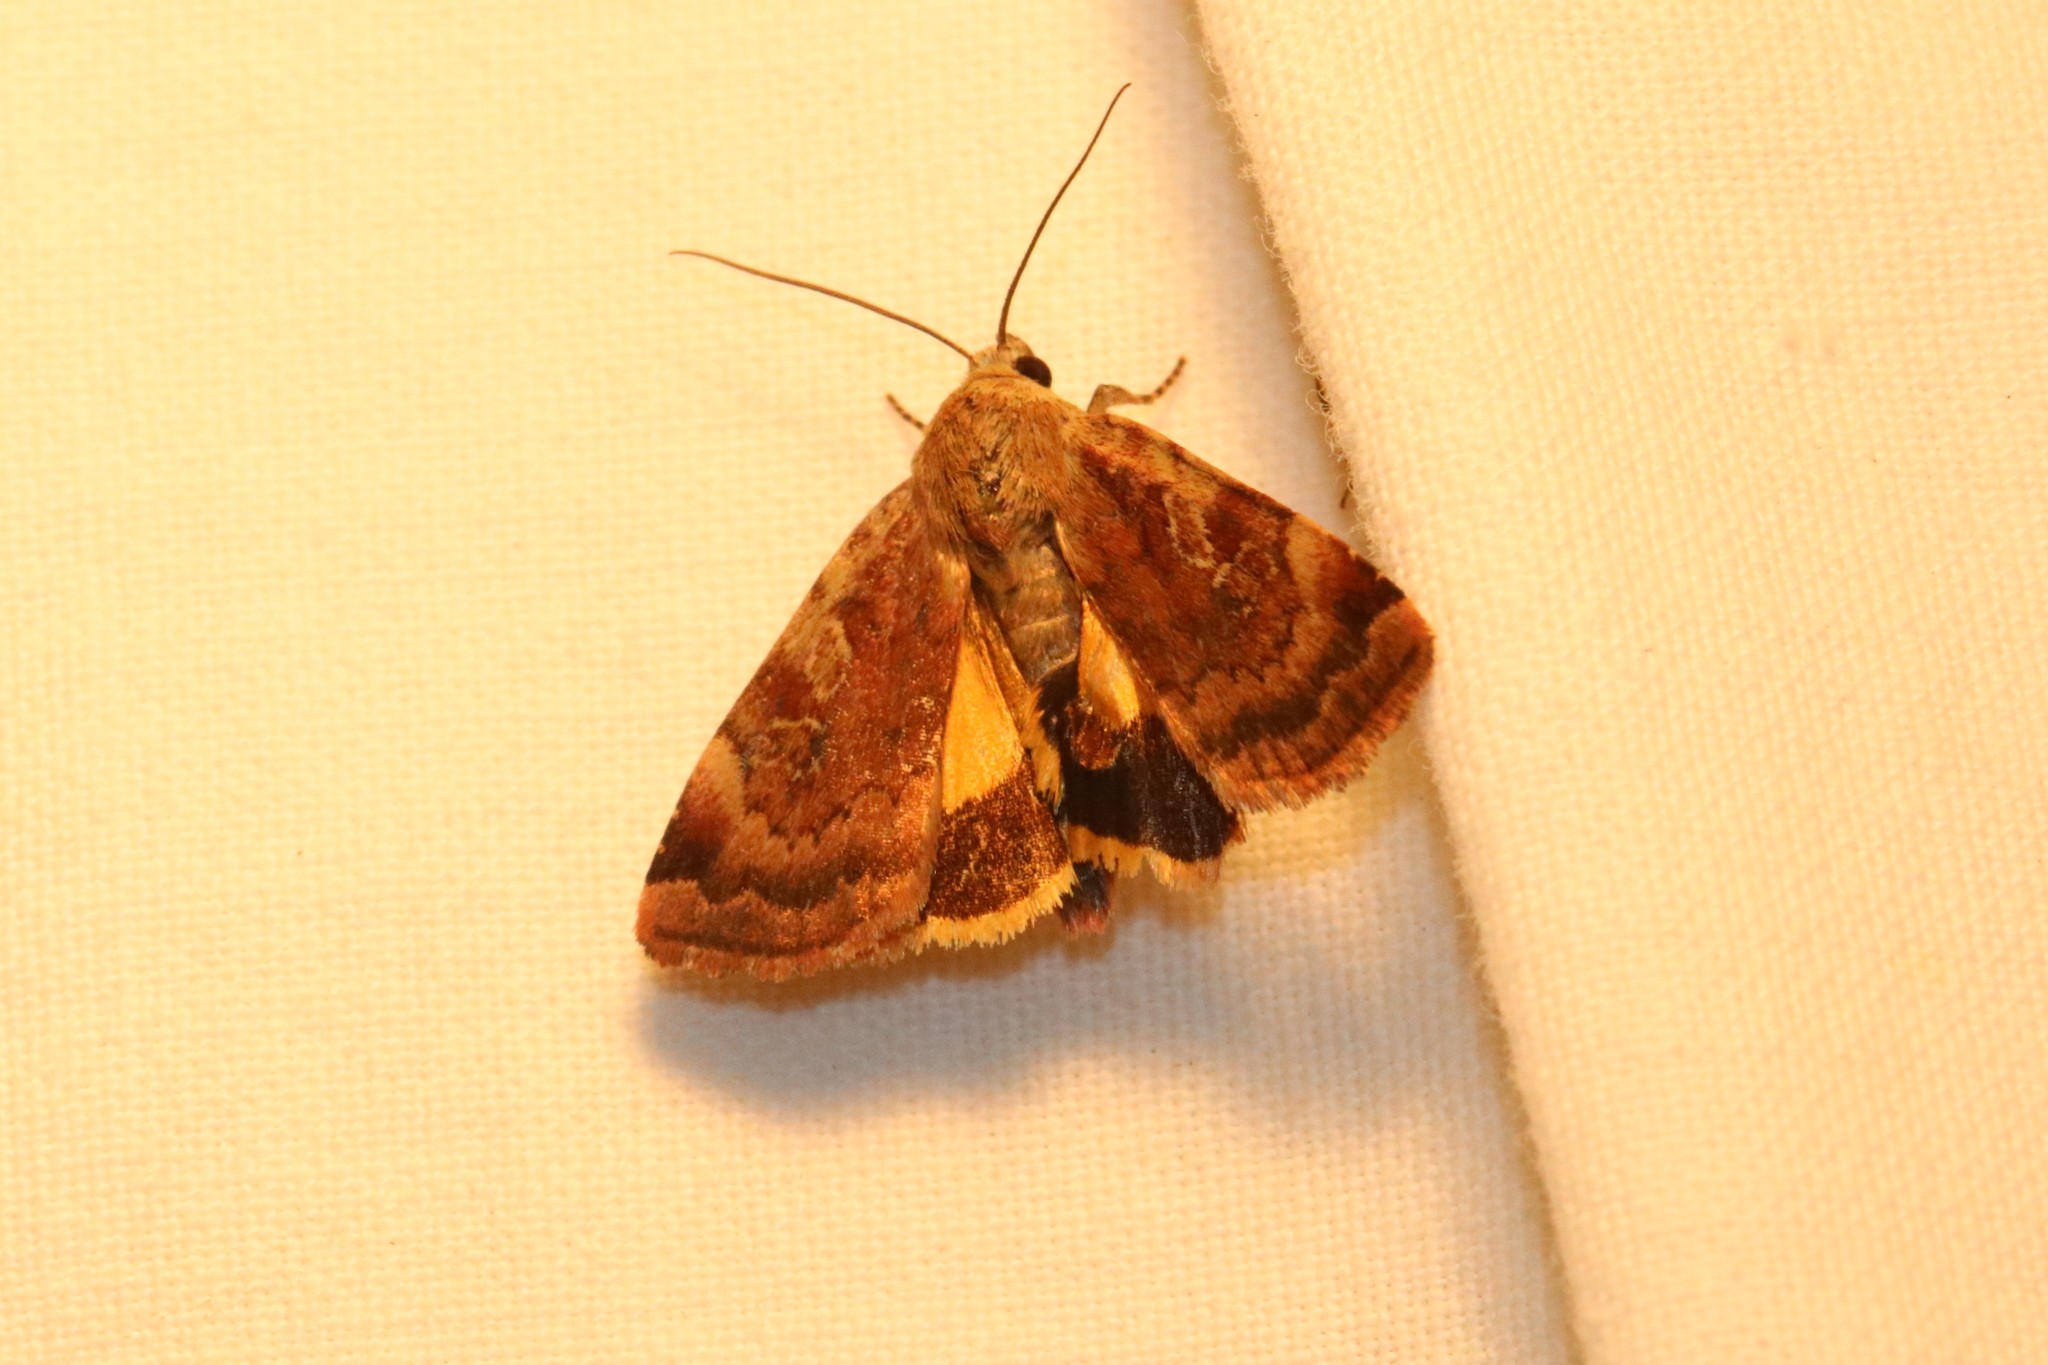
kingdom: Animalia
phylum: Arthropoda
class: Insecta
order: Lepidoptera
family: Noctuidae
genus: Cryptocala
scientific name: Cryptocala acadiensis
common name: Catocaline dart
